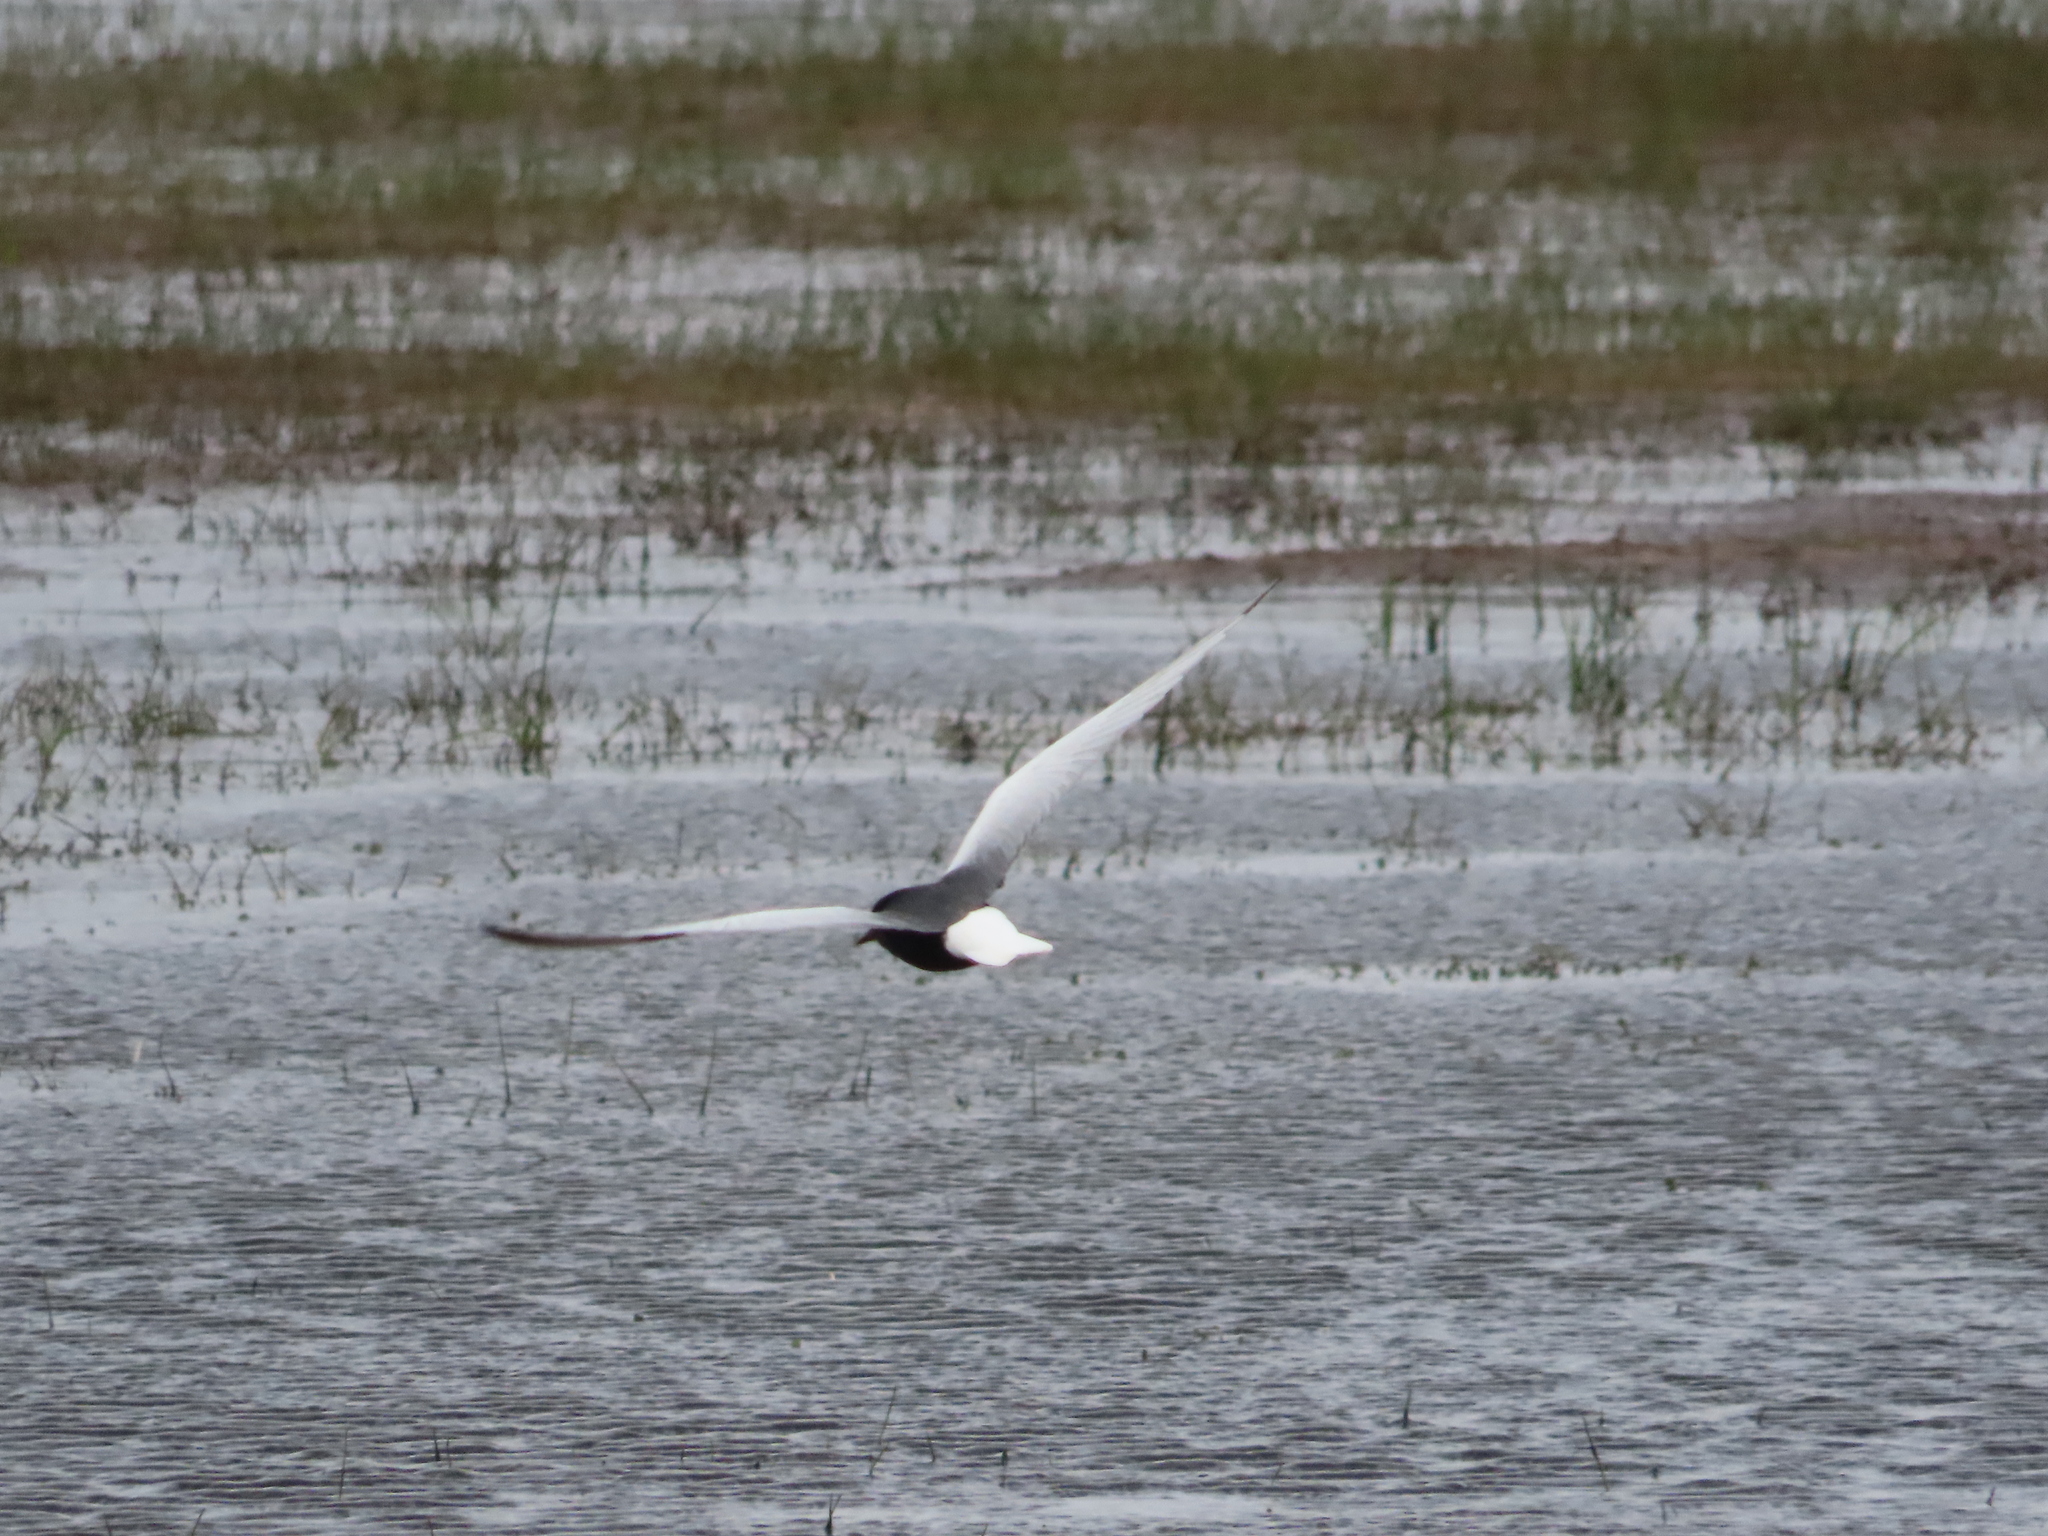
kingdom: Animalia
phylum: Chordata
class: Aves
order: Charadriiformes
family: Laridae
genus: Chlidonias
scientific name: Chlidonias leucopterus
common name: White-winged tern
